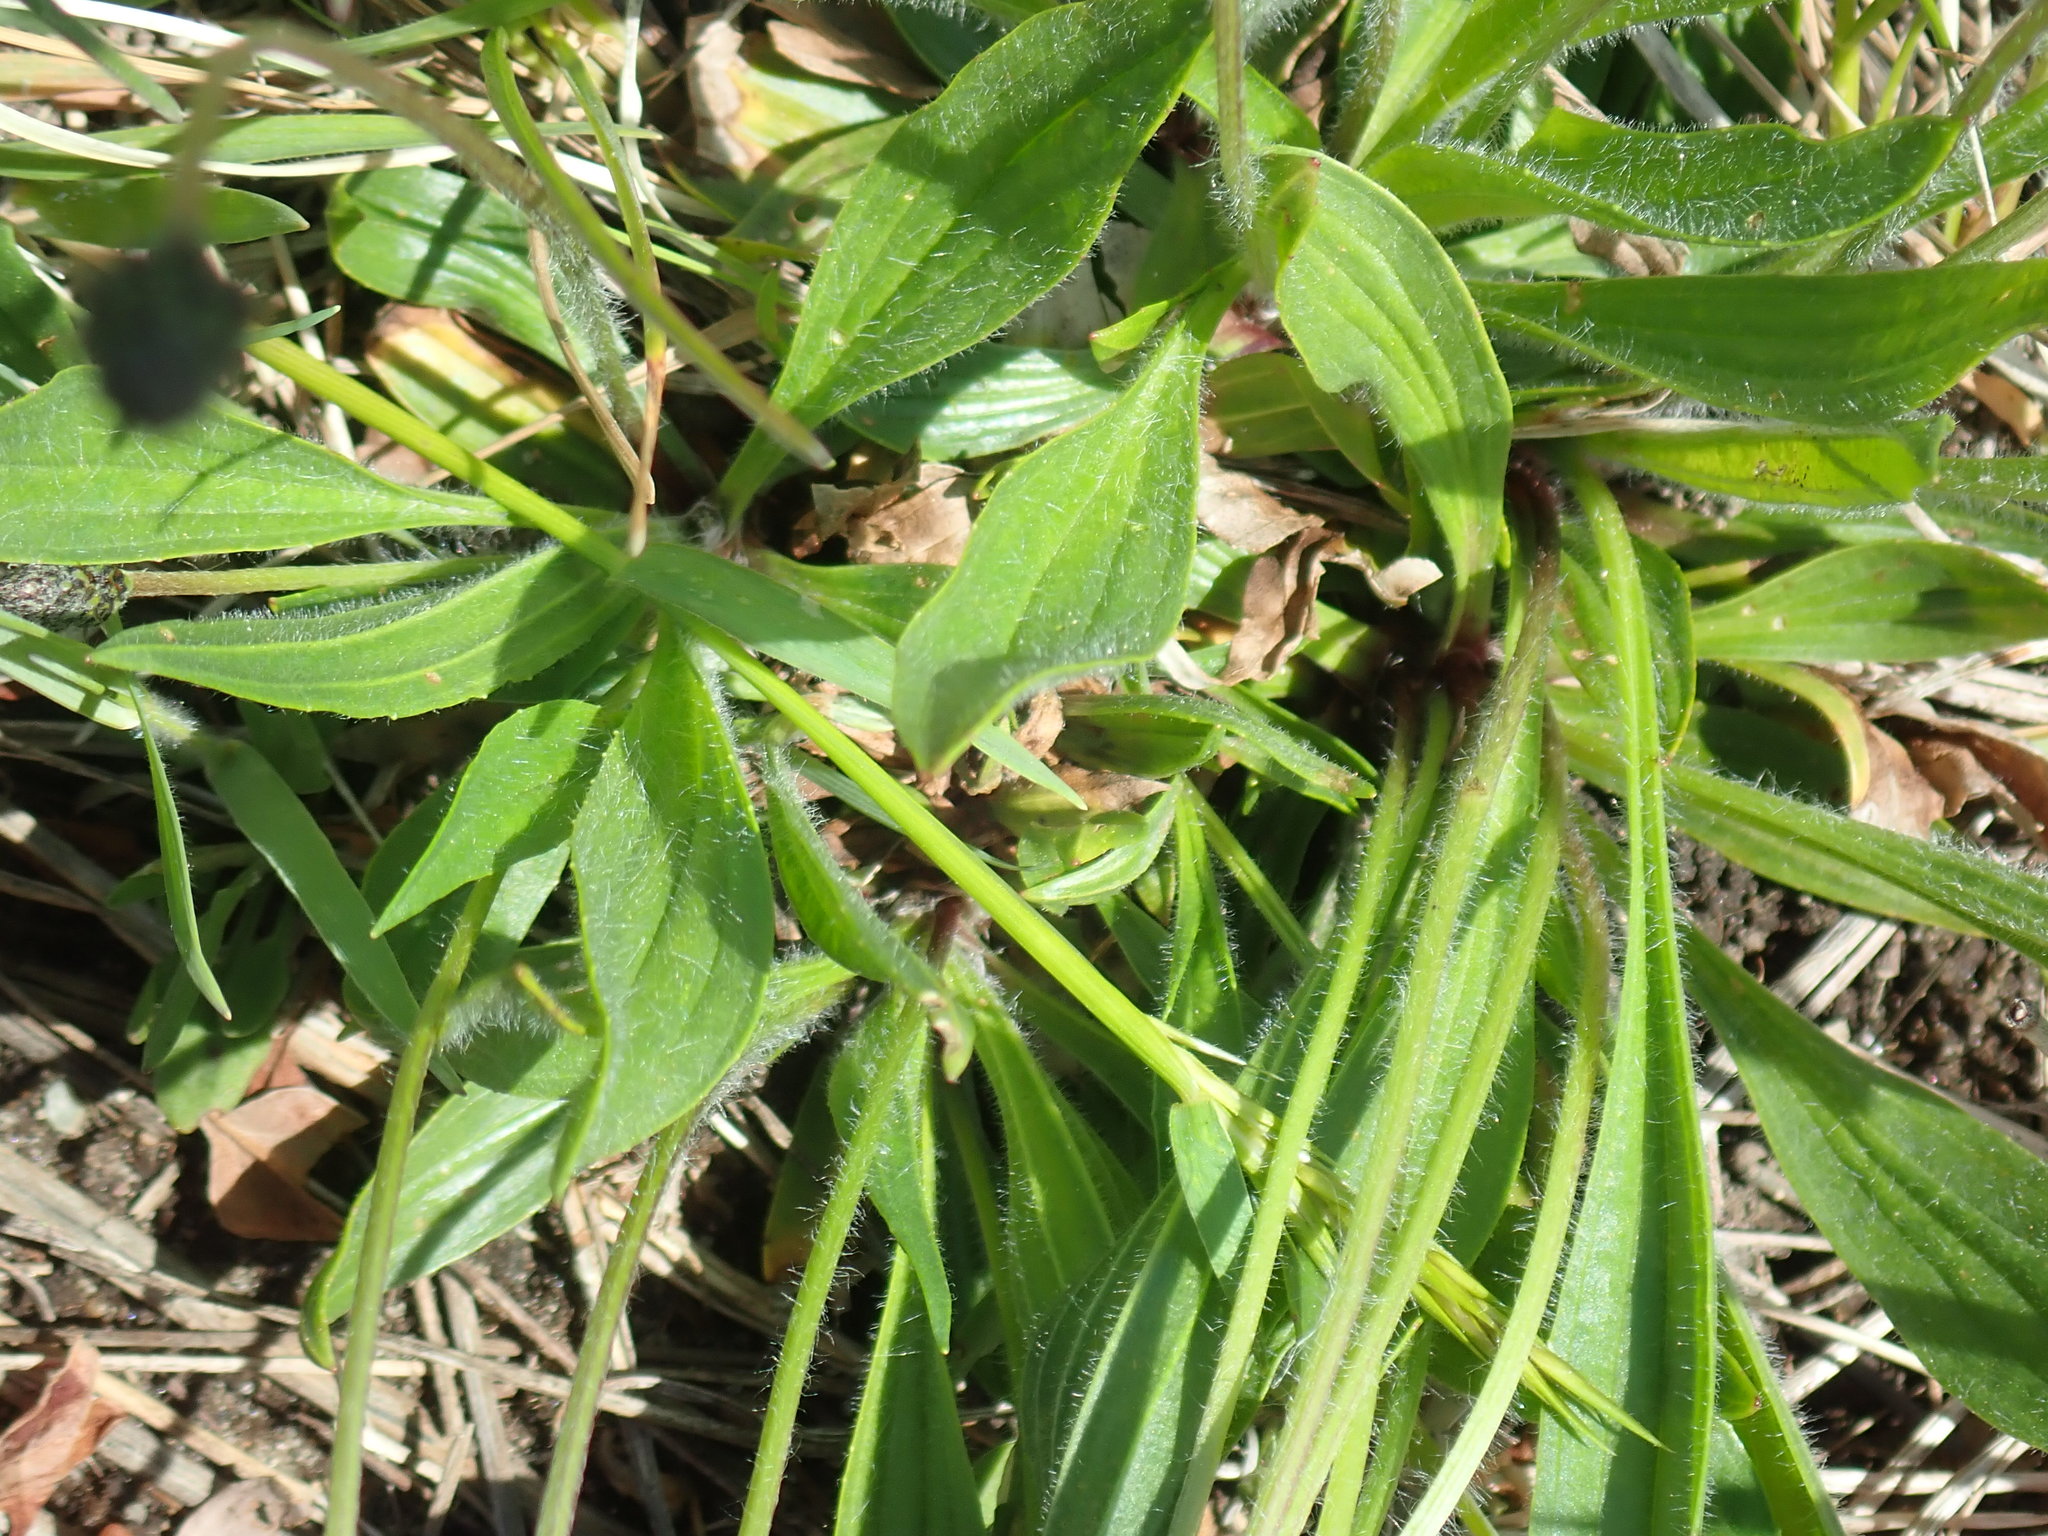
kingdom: Plantae
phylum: Tracheophyta
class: Magnoliopsida
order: Lamiales
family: Plantaginaceae
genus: Plantago
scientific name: Plantago lanceolata
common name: Ribwort plantain
